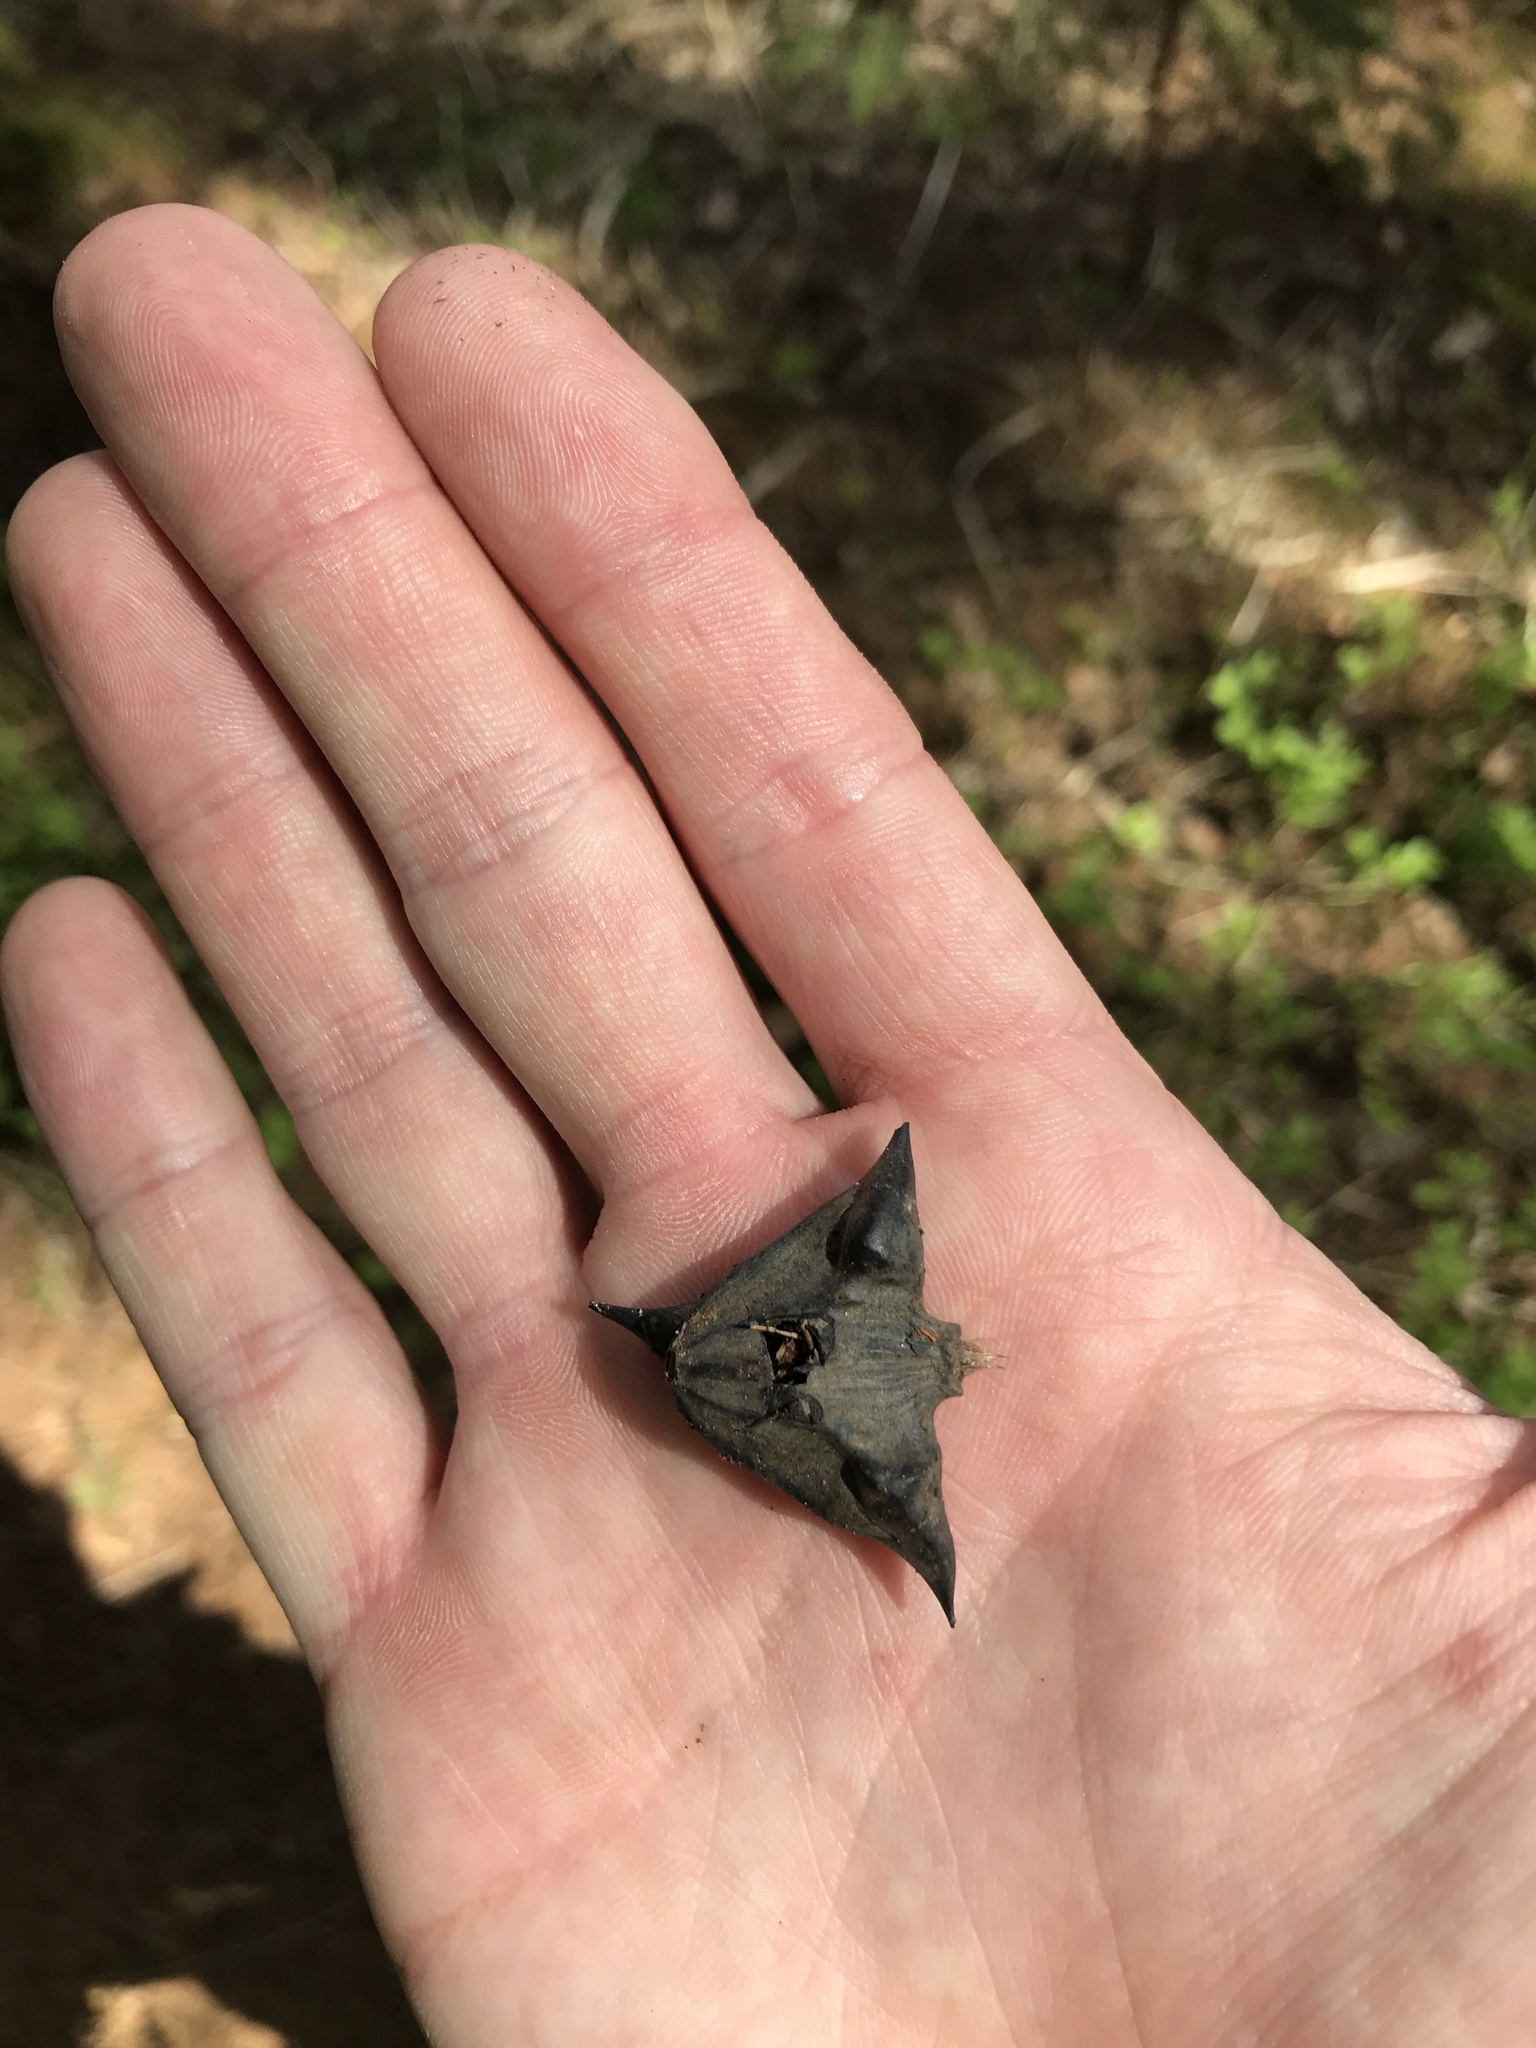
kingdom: Plantae
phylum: Tracheophyta
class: Magnoliopsida
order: Myrtales
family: Lythraceae
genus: Trapa
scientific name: Trapa natans
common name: Water chestnut
